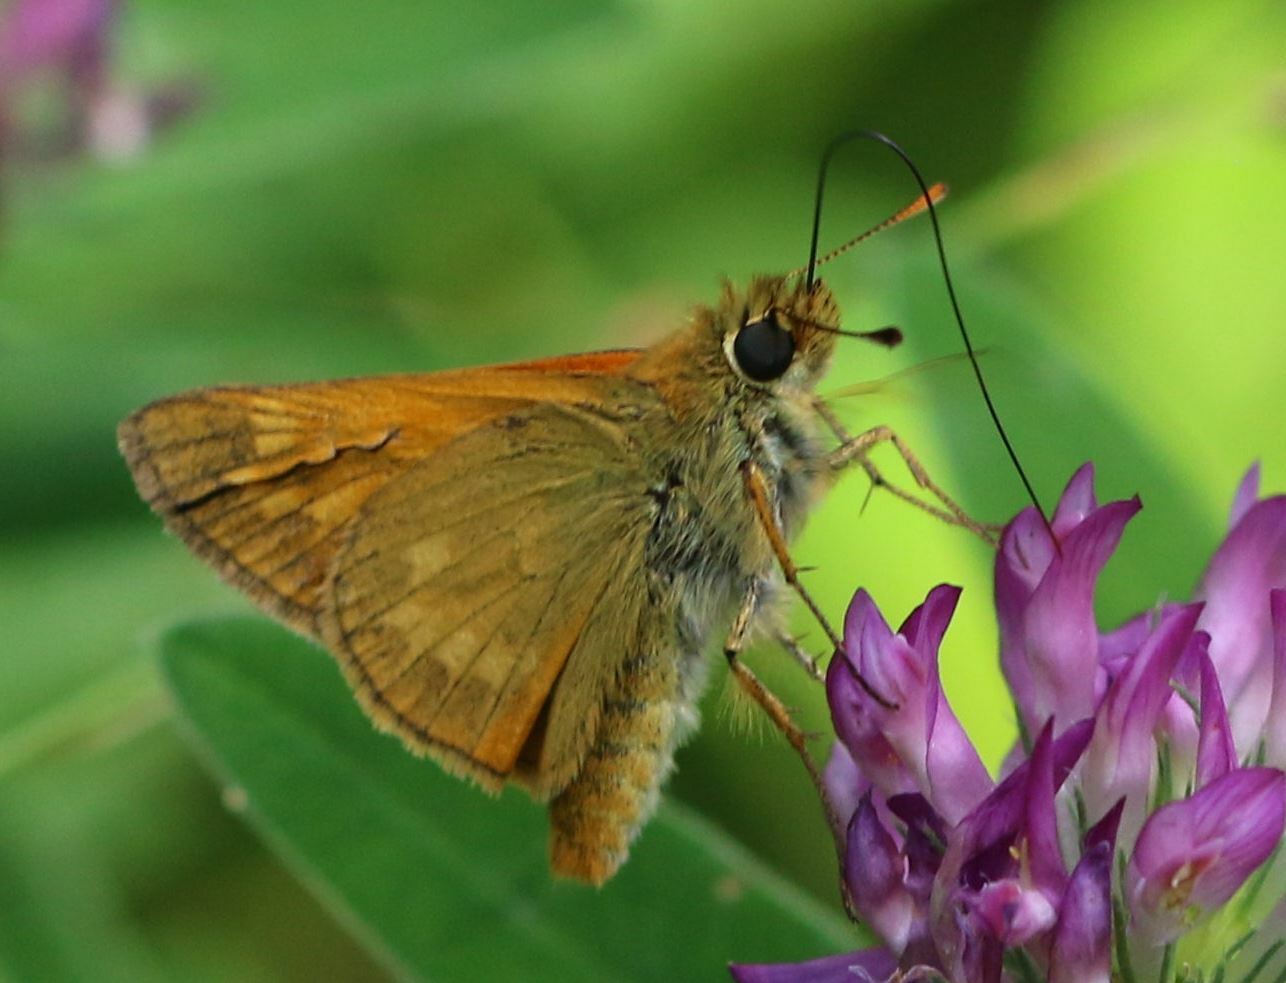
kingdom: Animalia
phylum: Arthropoda
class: Insecta
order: Lepidoptera
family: Hesperiidae
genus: Ochlodes
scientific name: Ochlodes venata
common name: Large skipper
